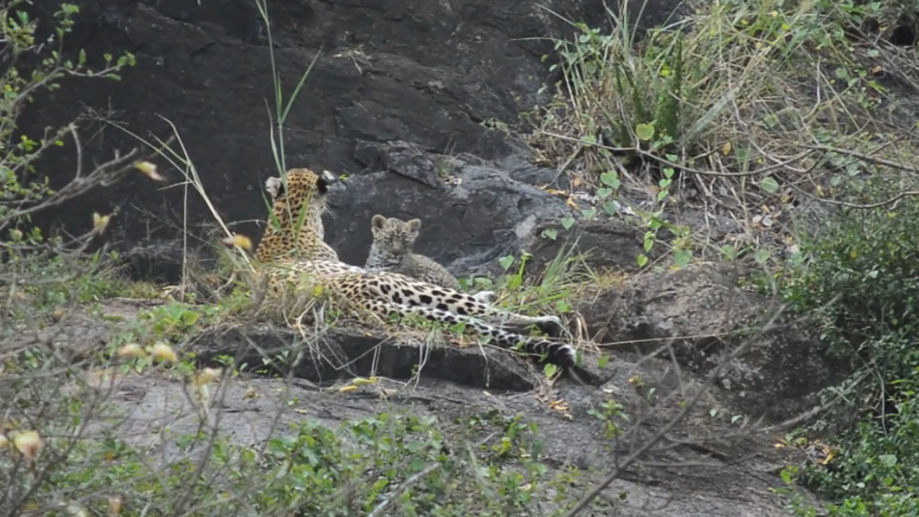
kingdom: Animalia
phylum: Chordata
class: Mammalia
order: Carnivora
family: Felidae
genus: Panthera
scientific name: Panthera pardus
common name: Leopard
